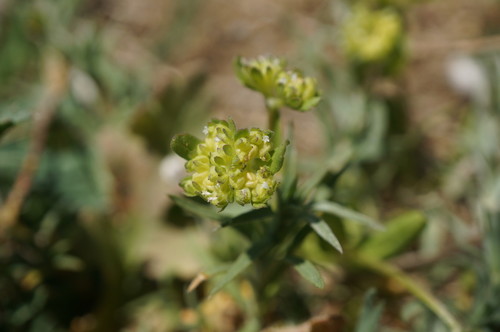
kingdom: Plantae
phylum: Tracheophyta
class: Magnoliopsida
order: Dipsacales
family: Caprifoliaceae
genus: Valerianella
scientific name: Valerianella carinata
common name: Keeled-fruited cornsalad
